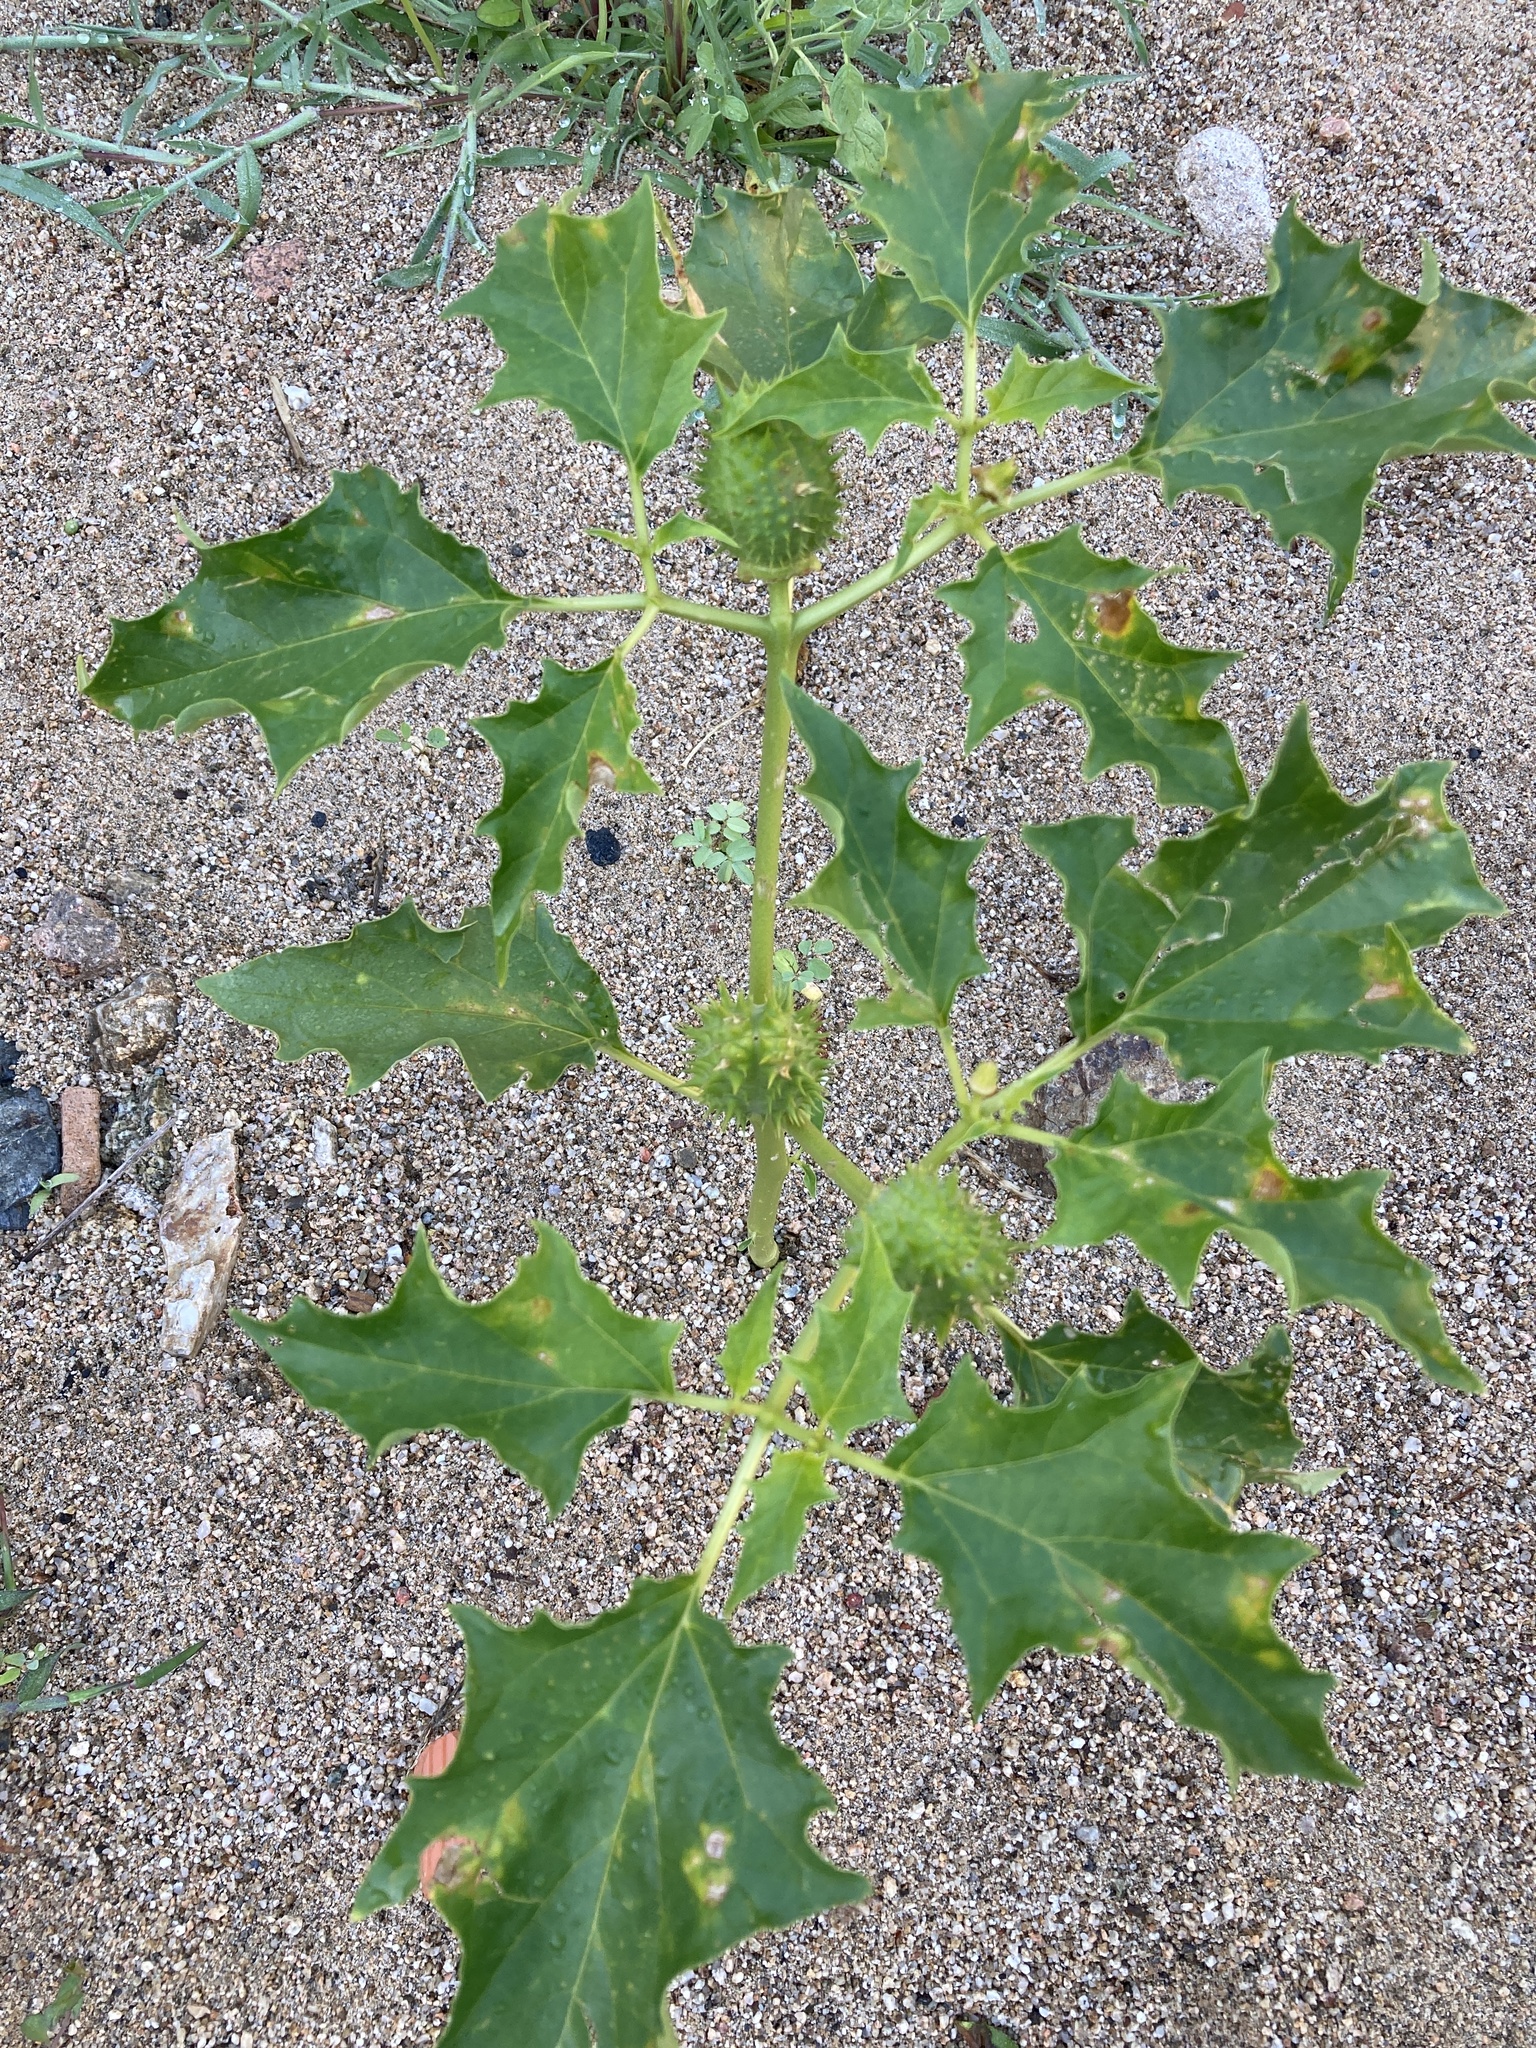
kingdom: Plantae
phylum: Tracheophyta
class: Magnoliopsida
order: Solanales
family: Solanaceae
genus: Datura
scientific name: Datura stramonium
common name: Thorn-apple
